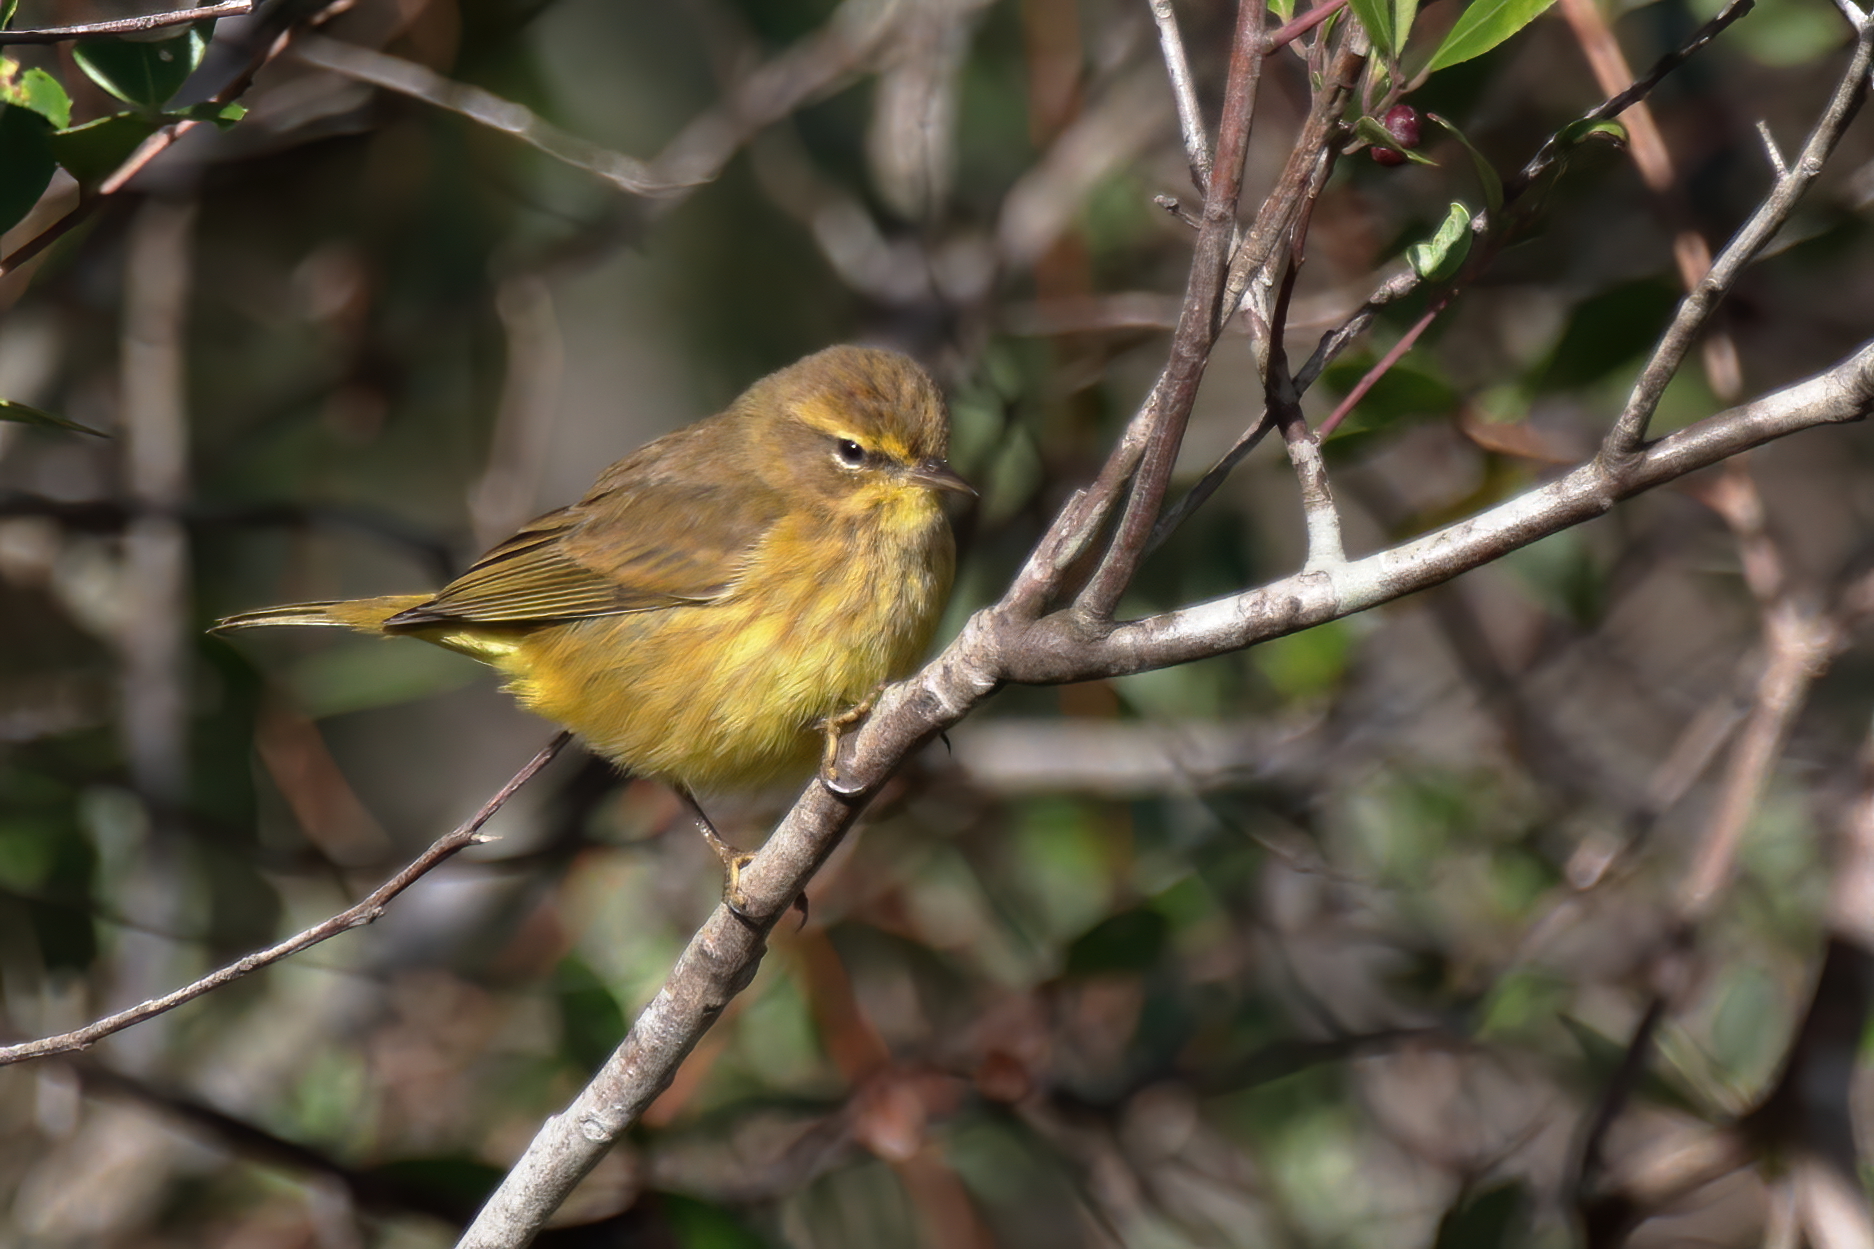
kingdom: Animalia
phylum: Chordata
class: Aves
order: Passeriformes
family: Parulidae
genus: Setophaga
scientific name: Setophaga palmarum
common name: Palm warbler
